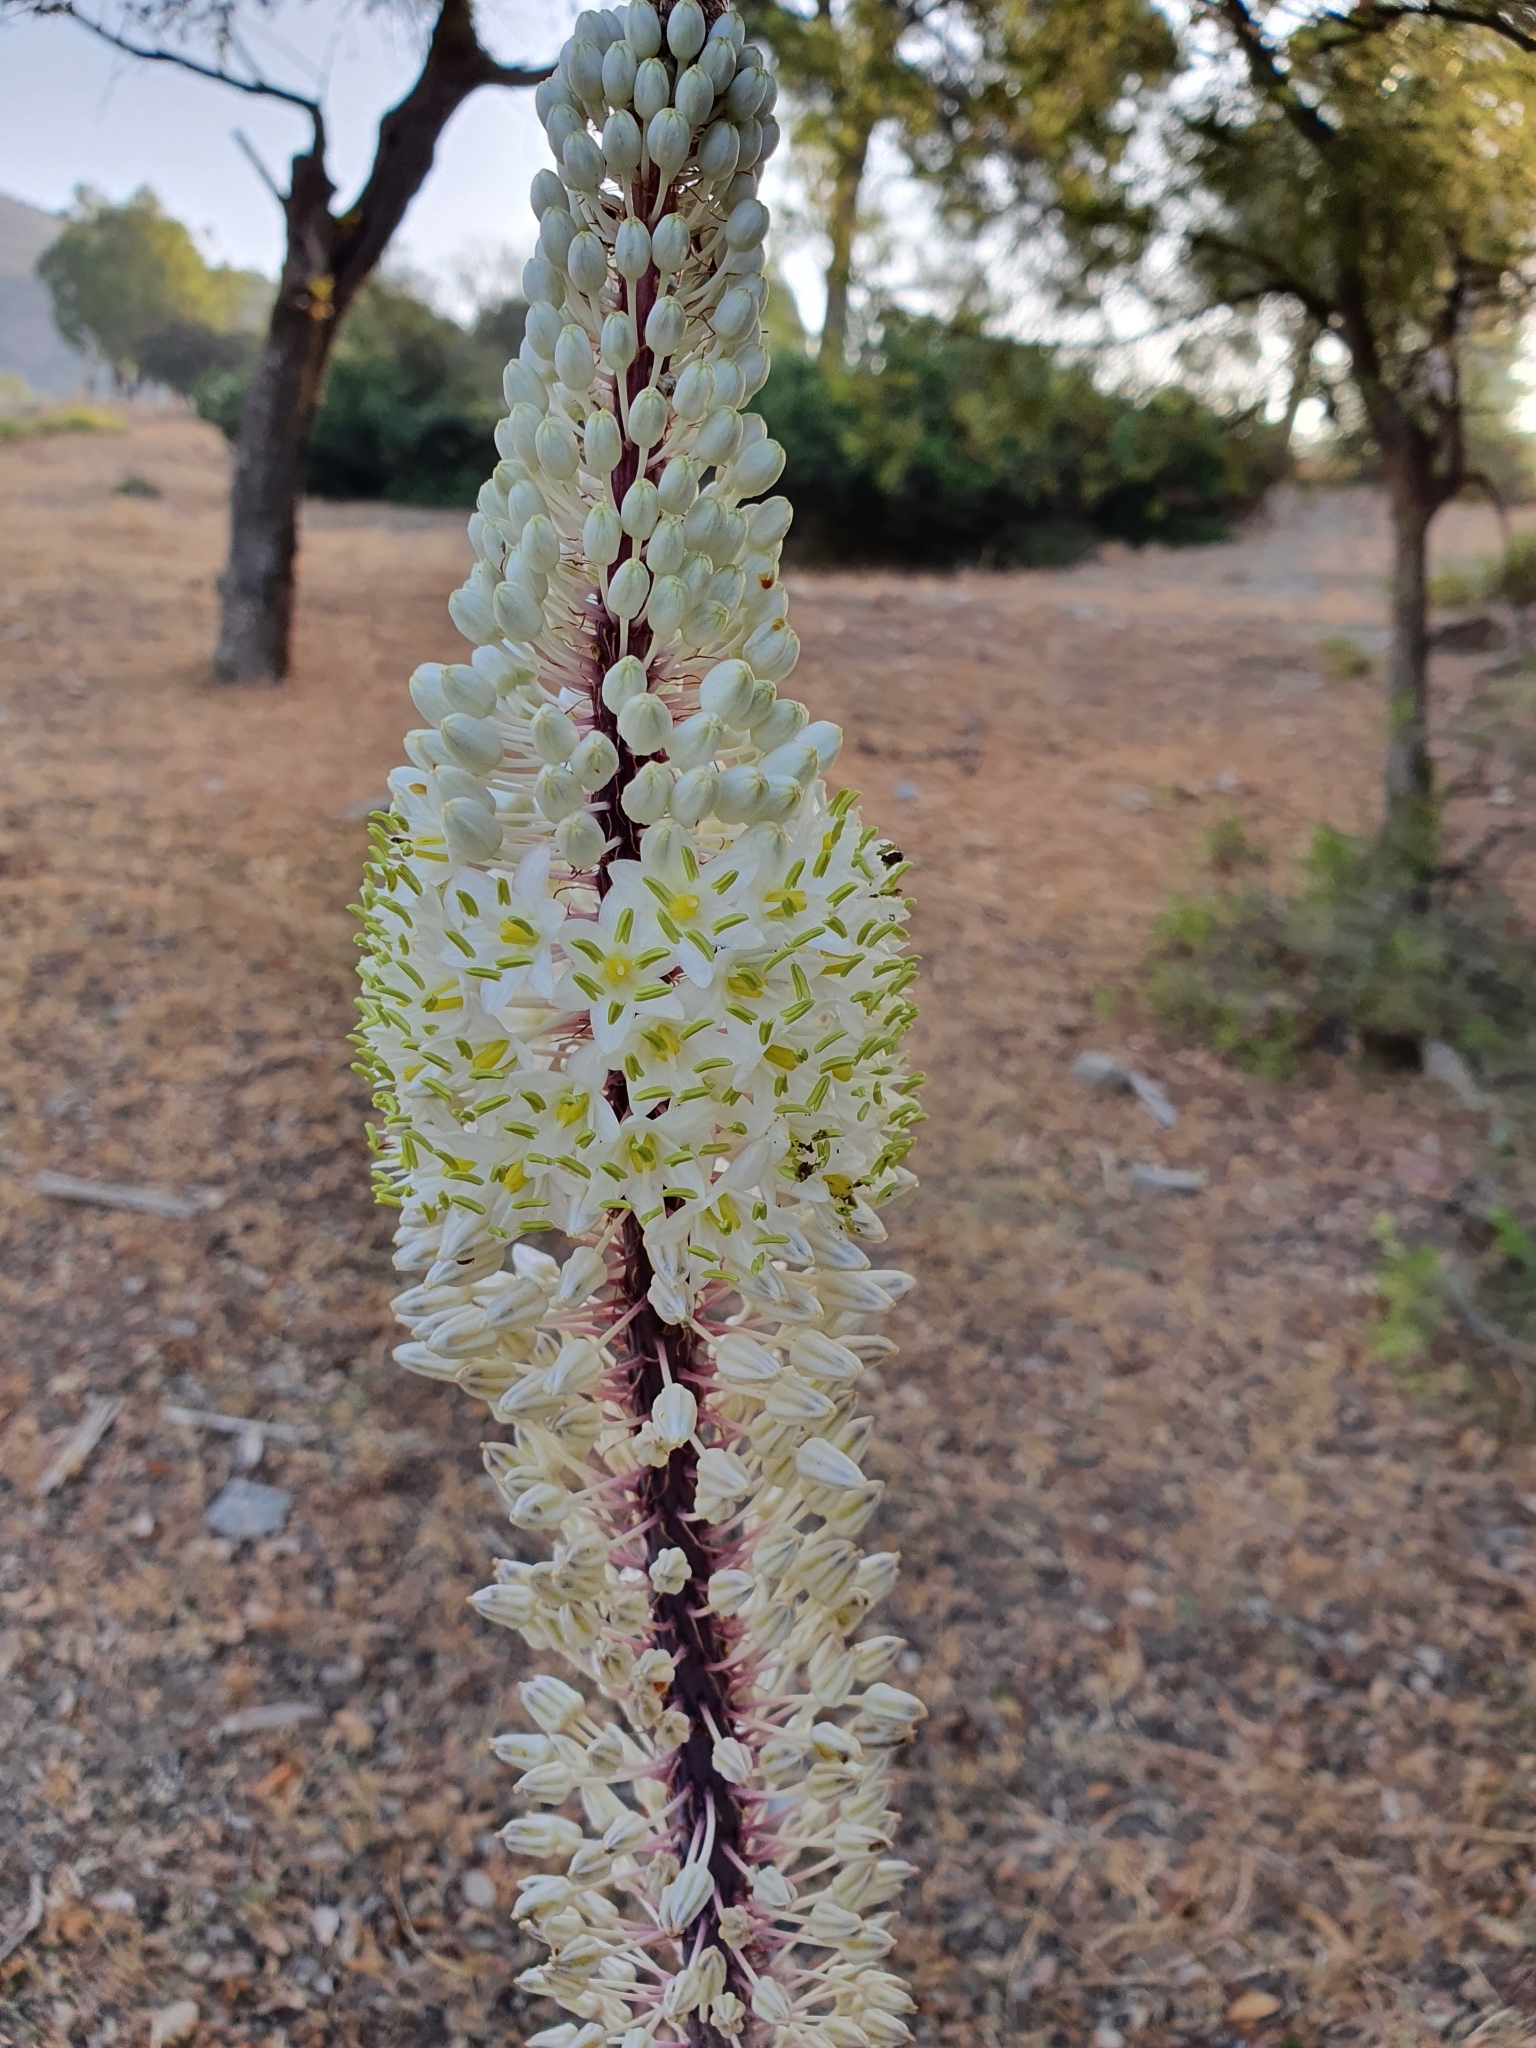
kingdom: Plantae
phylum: Tracheophyta
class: Liliopsida
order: Asparagales
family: Asparagaceae
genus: Drimia
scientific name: Drimia numidica
